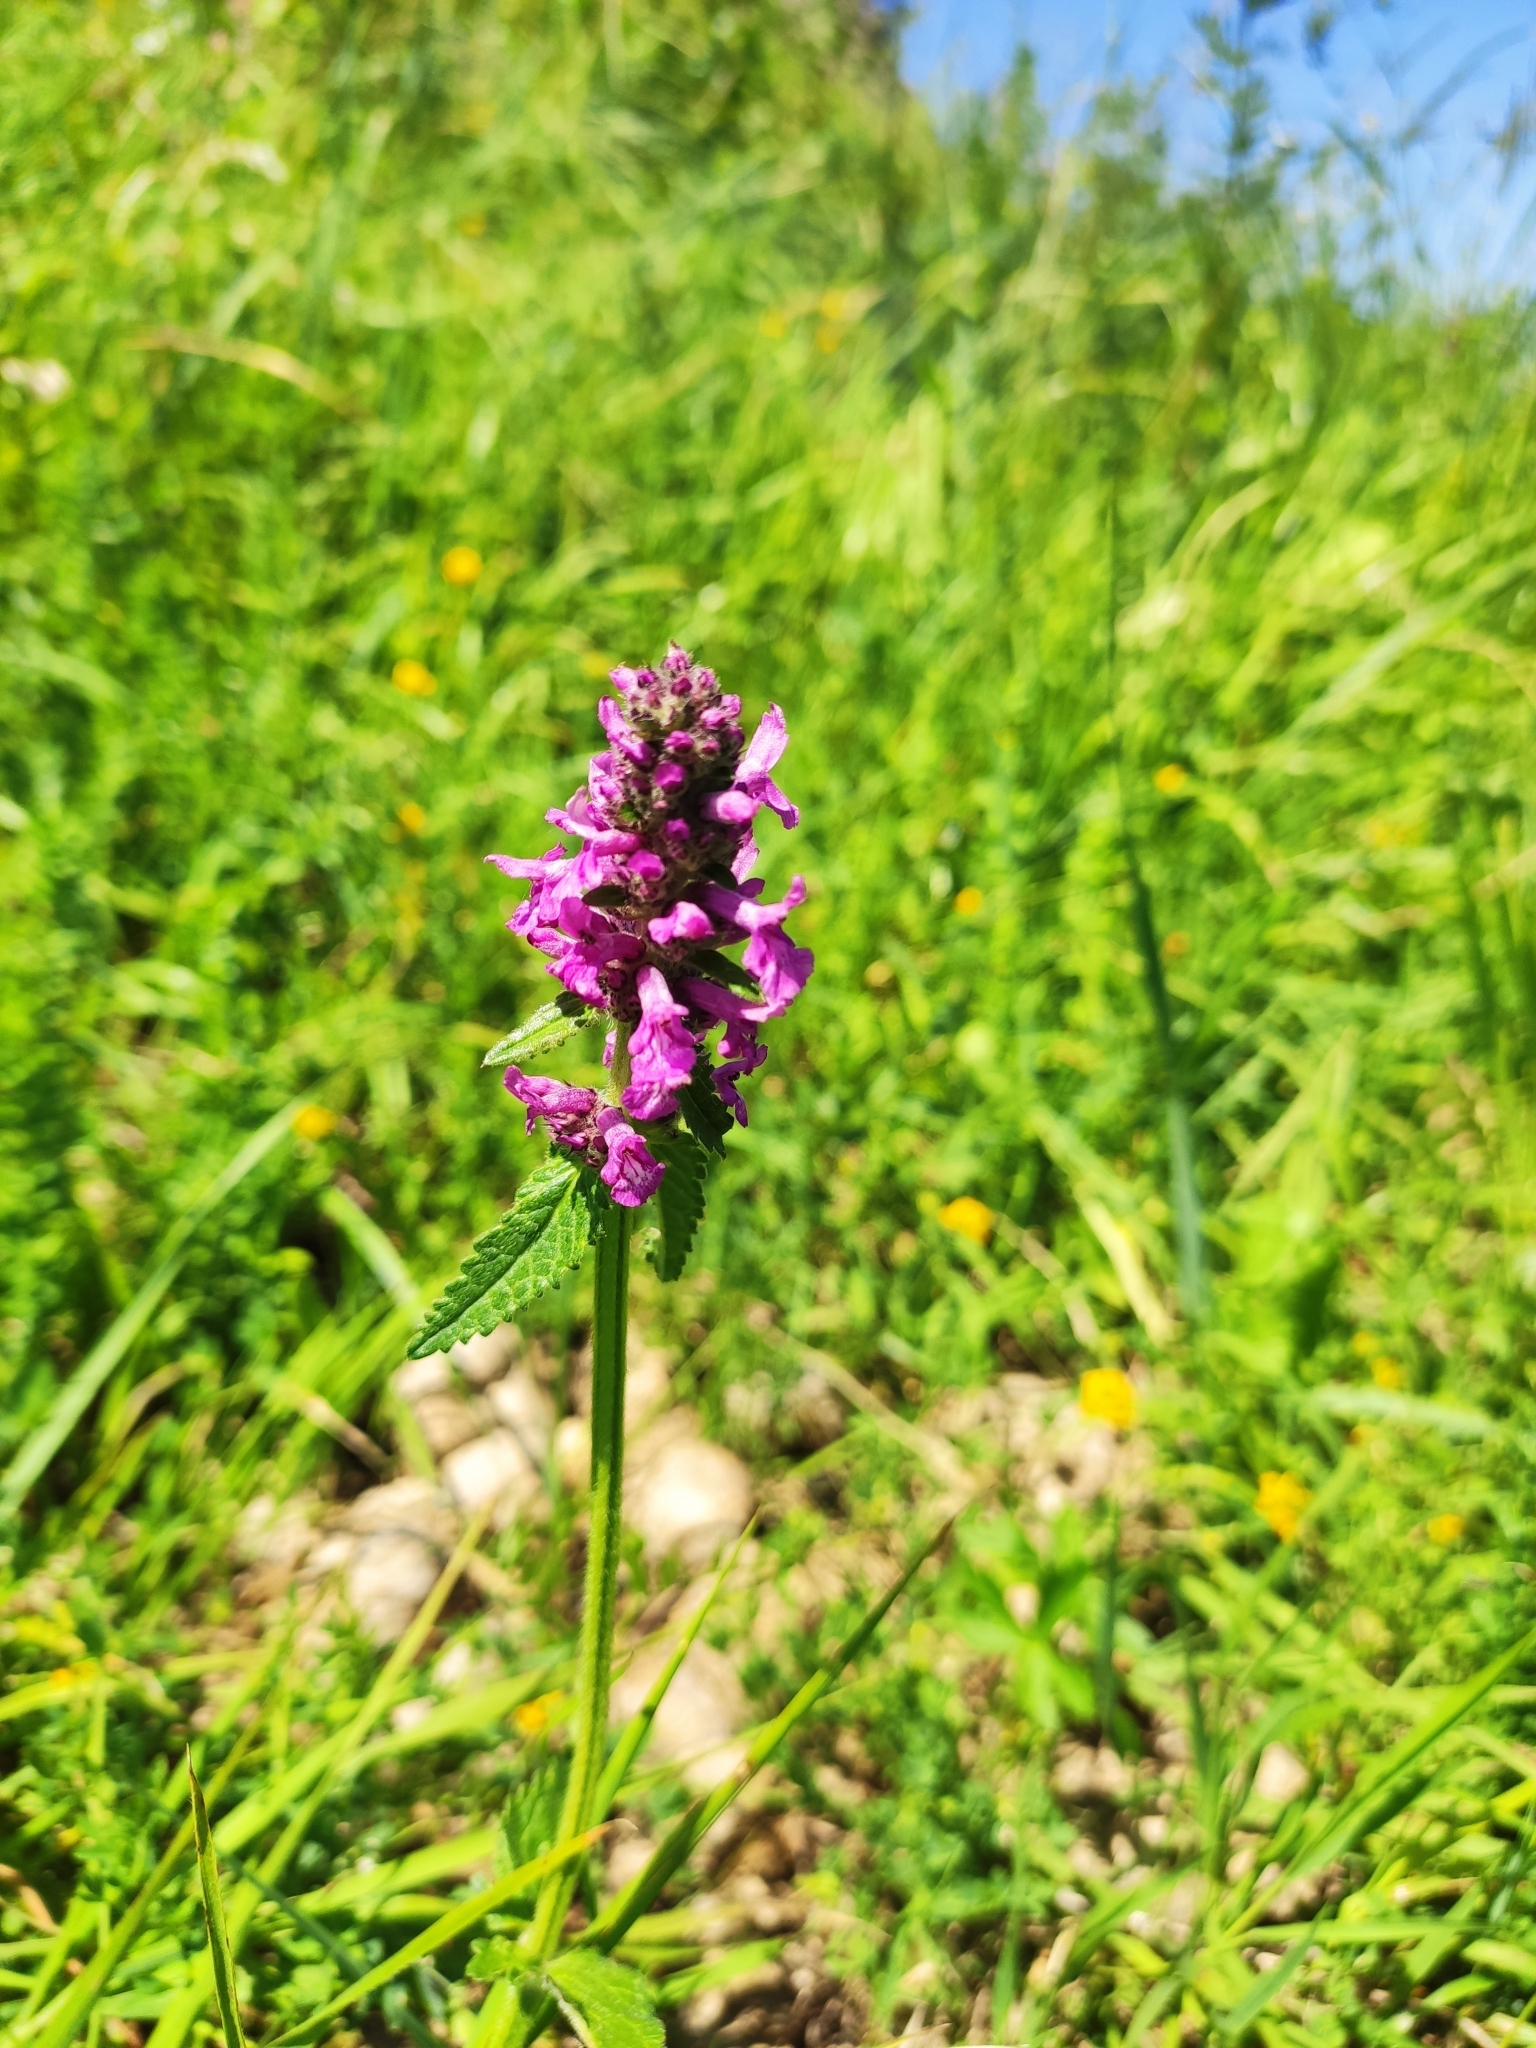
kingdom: Plantae
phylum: Tracheophyta
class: Magnoliopsida
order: Lamiales
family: Lamiaceae
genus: Betonica
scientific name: Betonica officinalis
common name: Bishop's-wort
